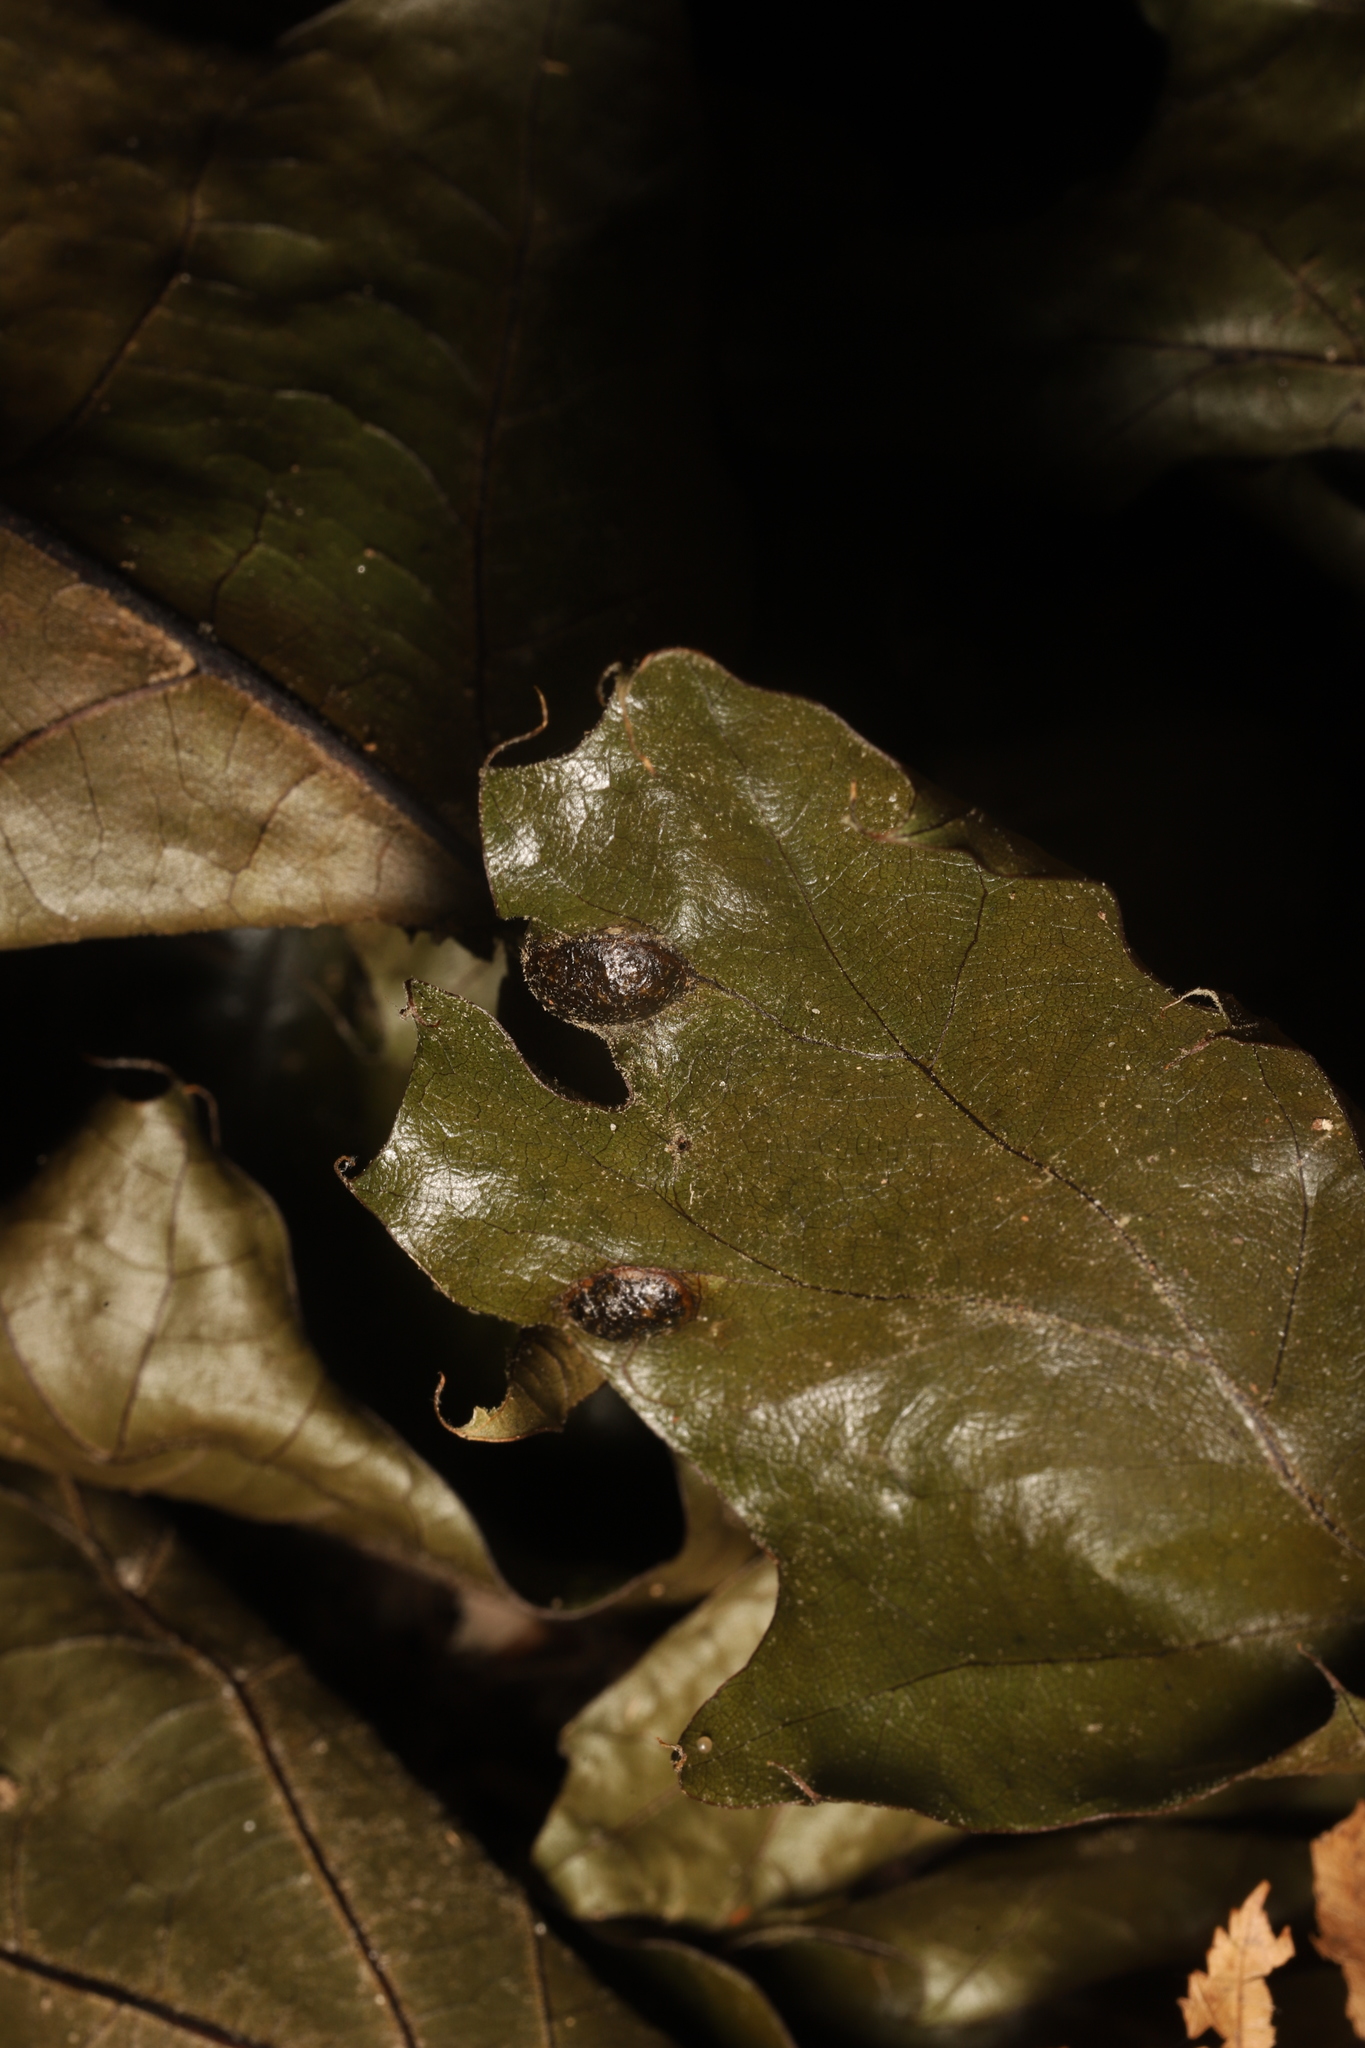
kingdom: Animalia
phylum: Arthropoda
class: Insecta
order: Hymenoptera
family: Cynipidae
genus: Amphibolips
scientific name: Amphibolips
